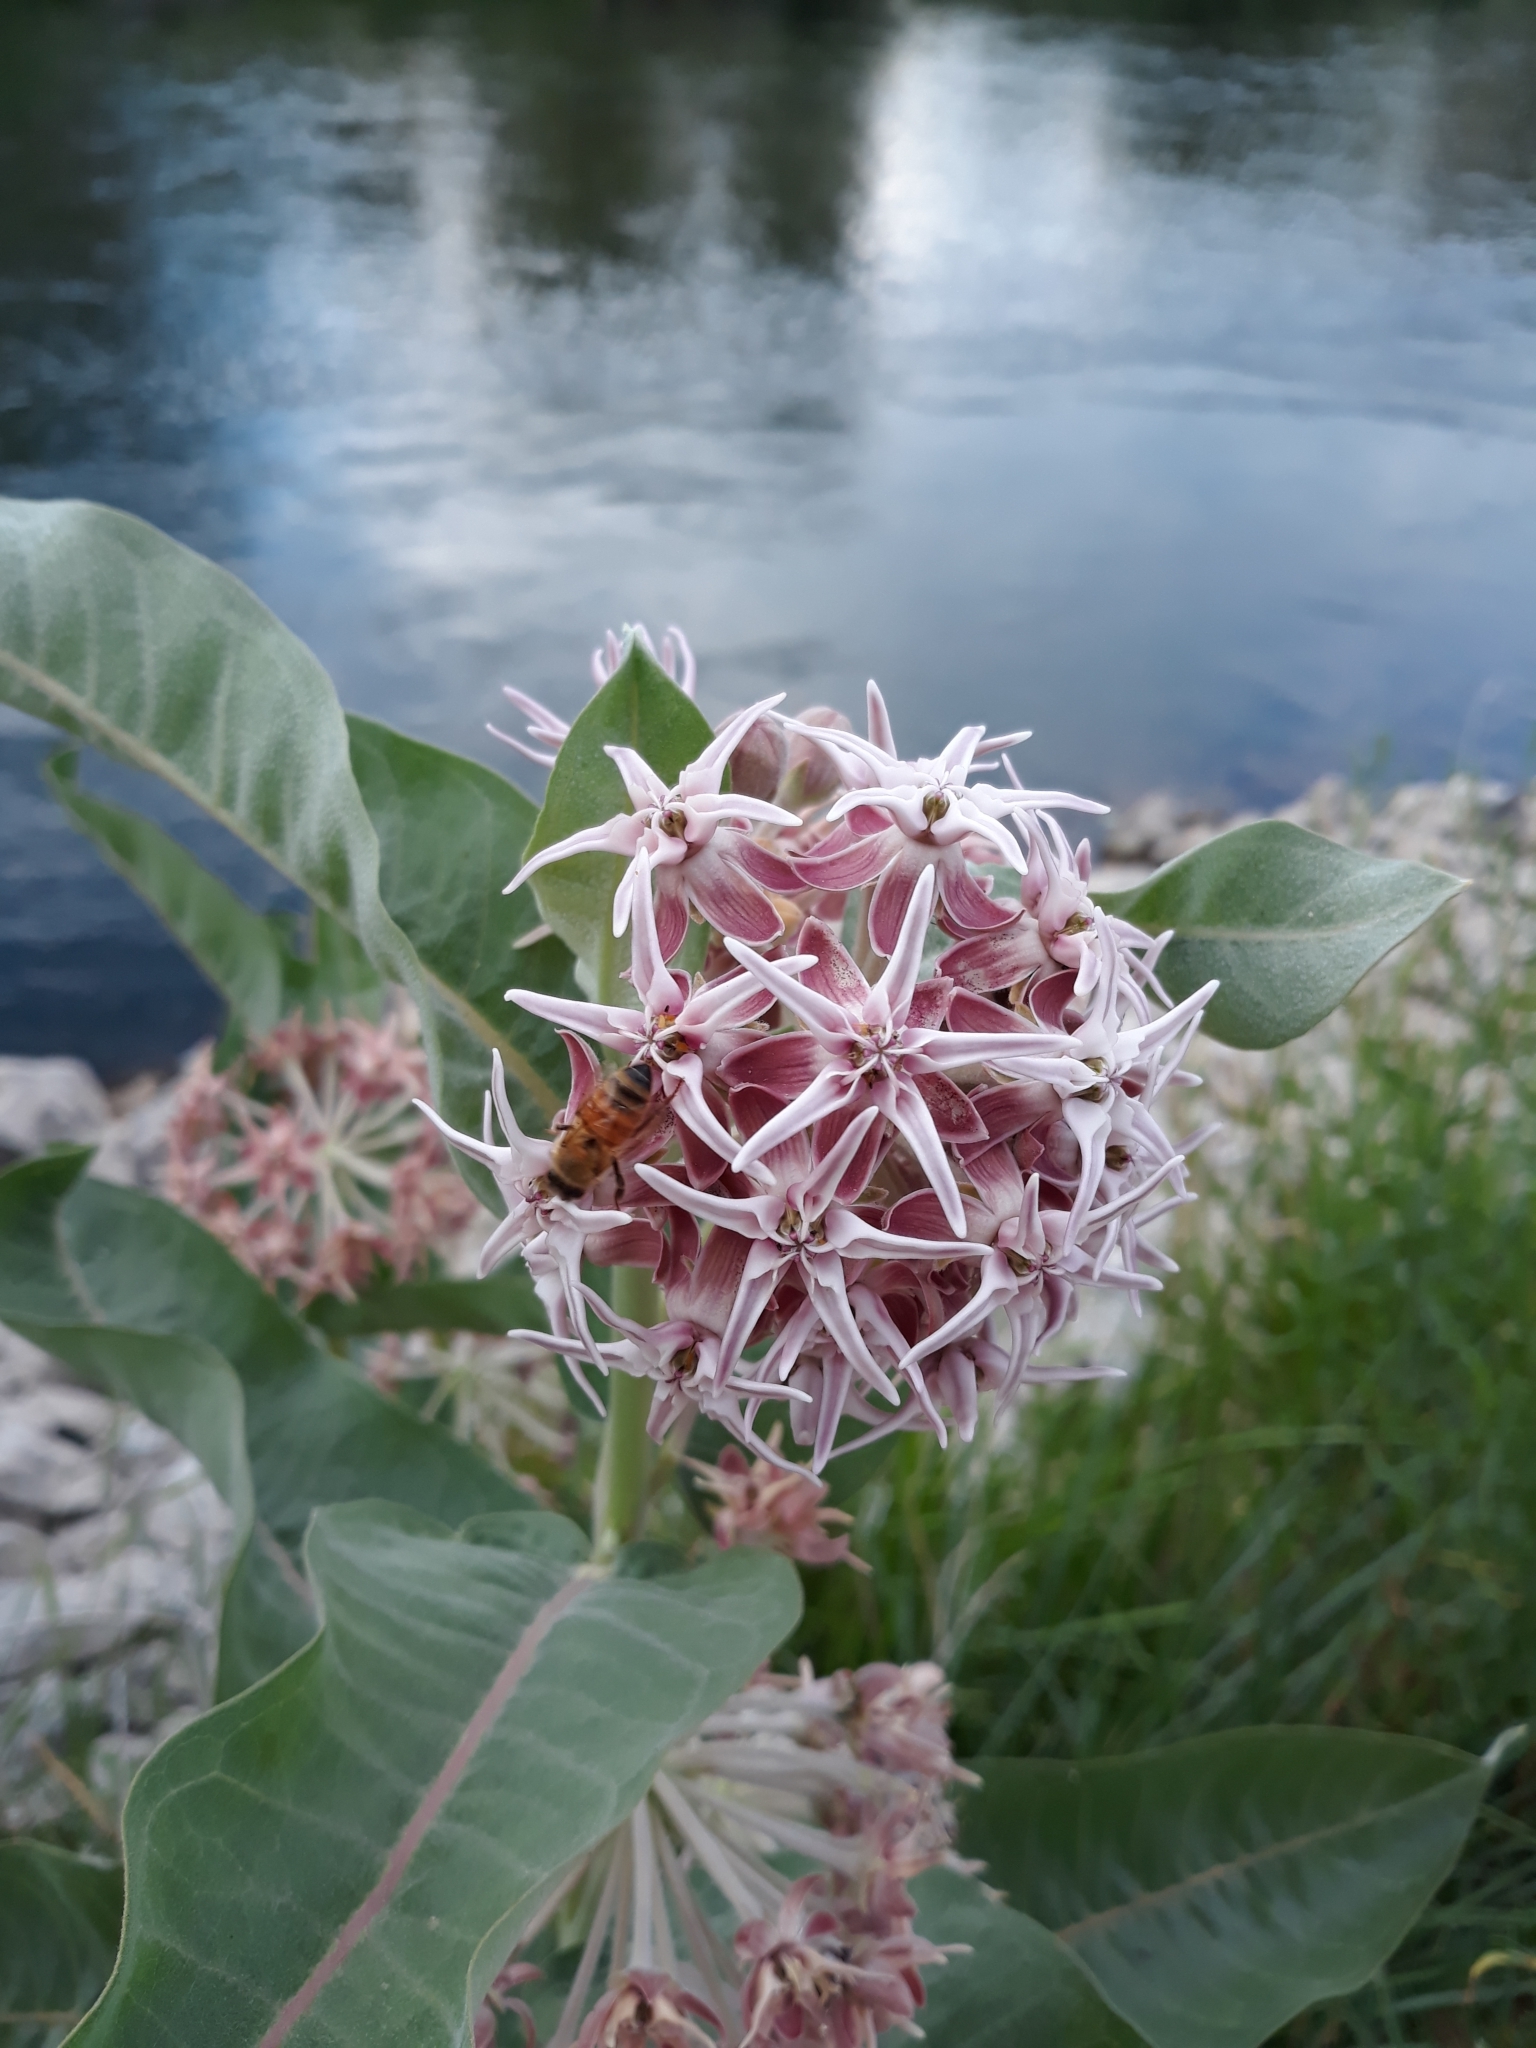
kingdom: Plantae
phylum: Tracheophyta
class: Magnoliopsida
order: Gentianales
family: Apocynaceae
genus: Asclepias
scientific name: Asclepias speciosa
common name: Showy milkweed
